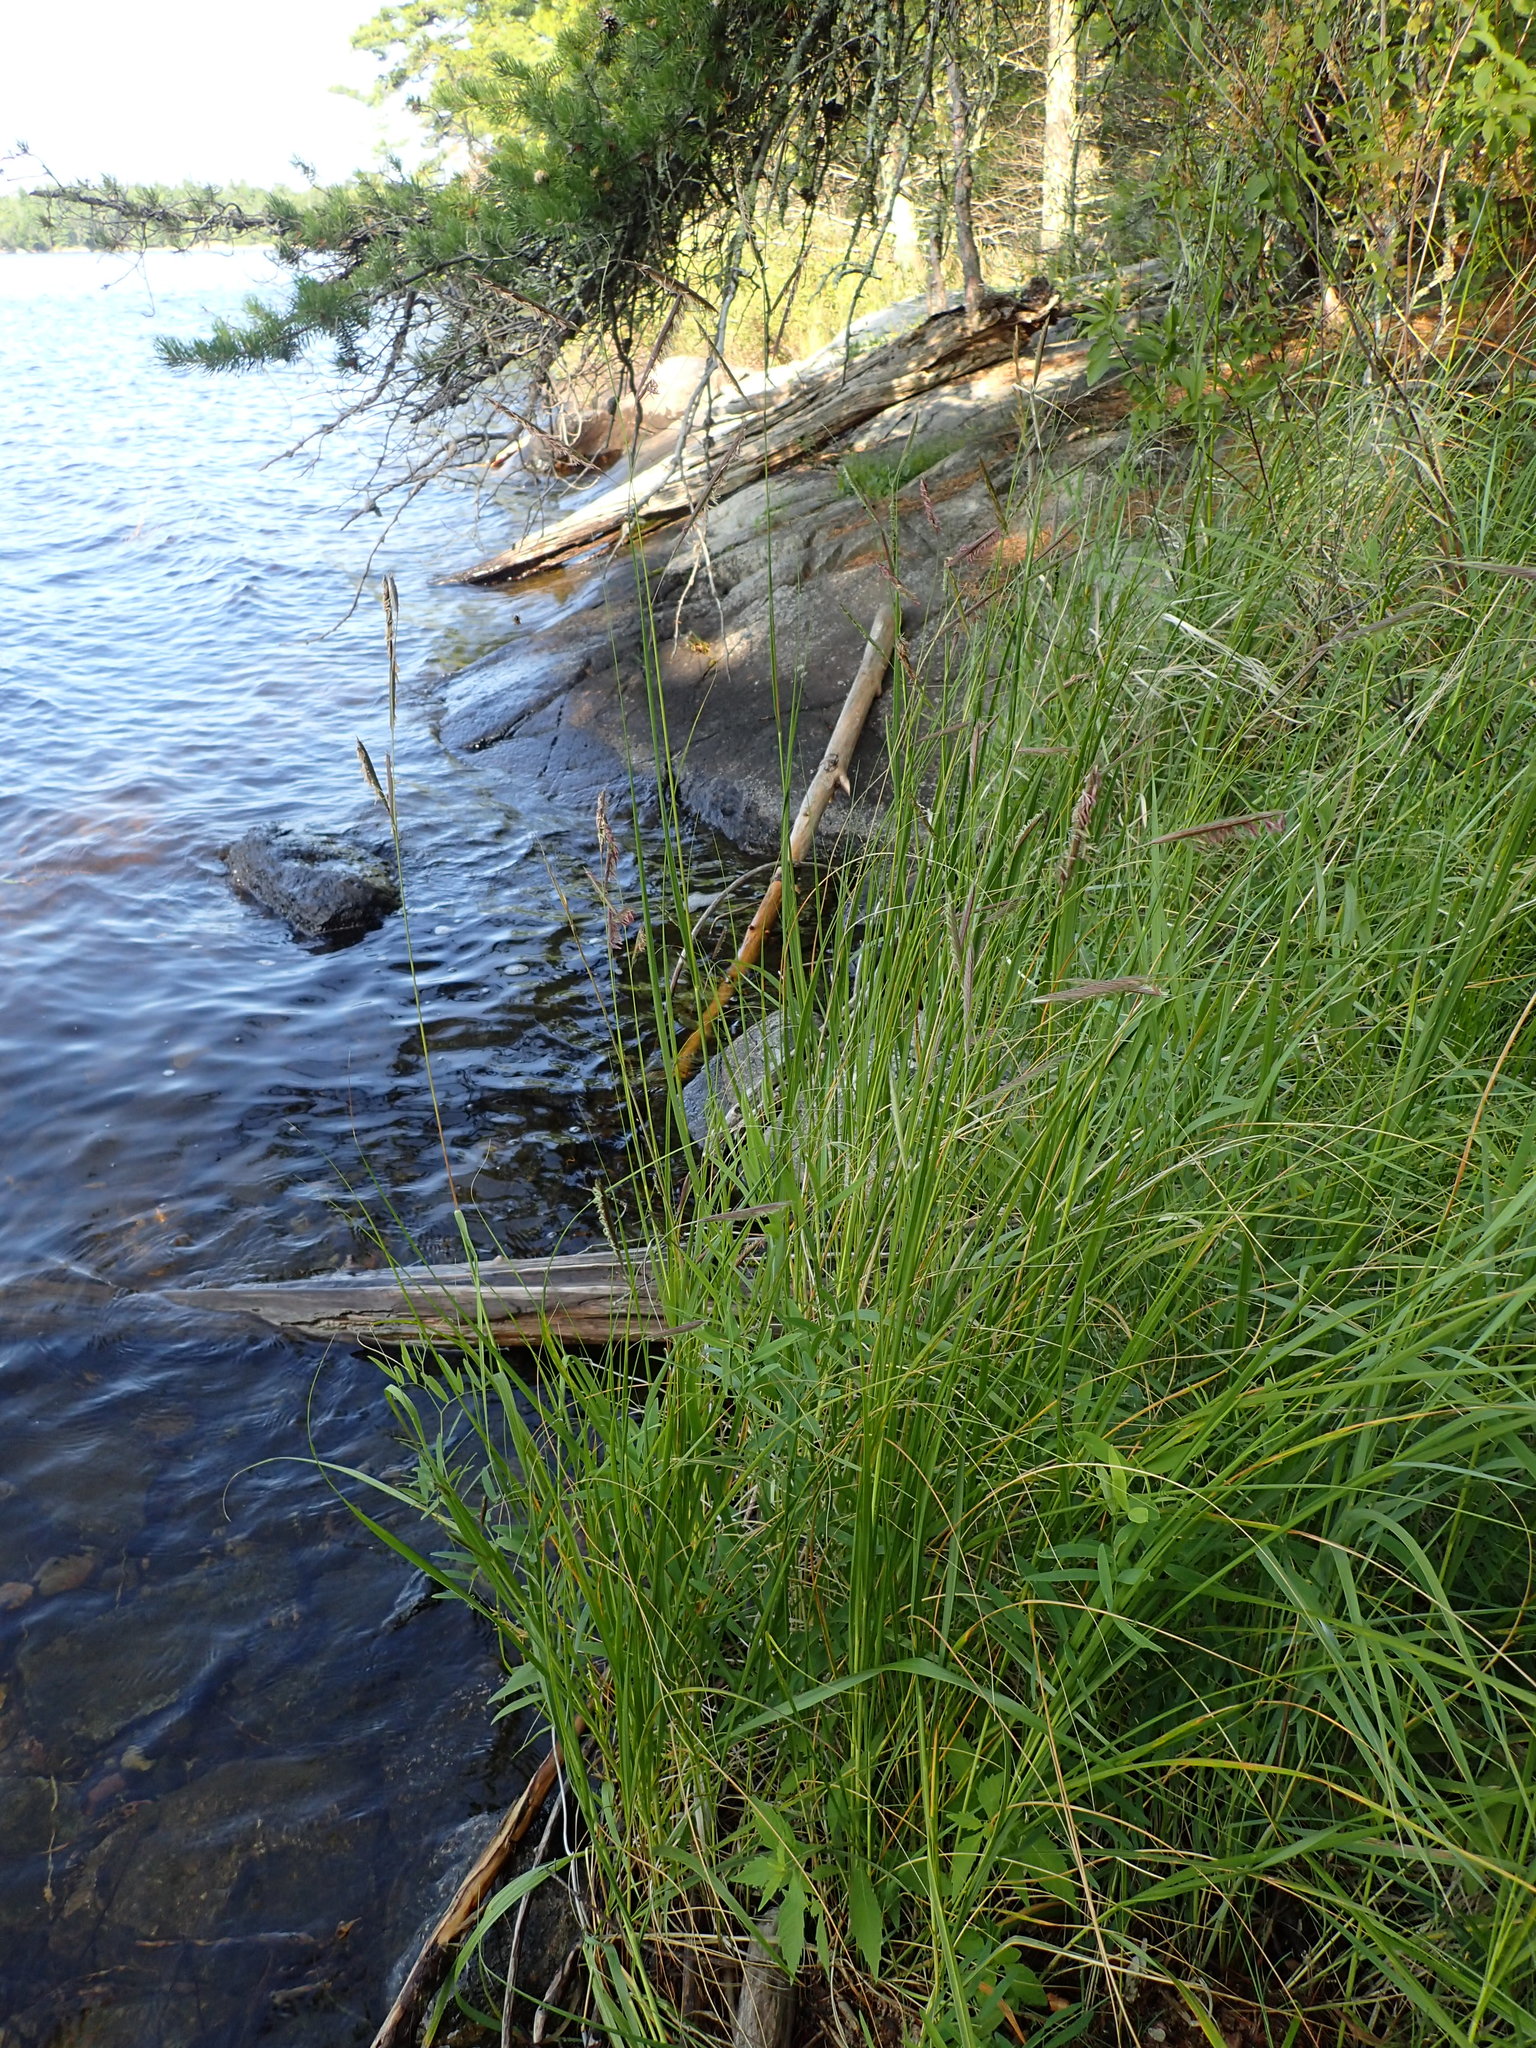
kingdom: Plantae
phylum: Tracheophyta
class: Liliopsida
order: Poales
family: Poaceae
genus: Sporobolus
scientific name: Sporobolus michauxianus
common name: Freshwater cordgrass
